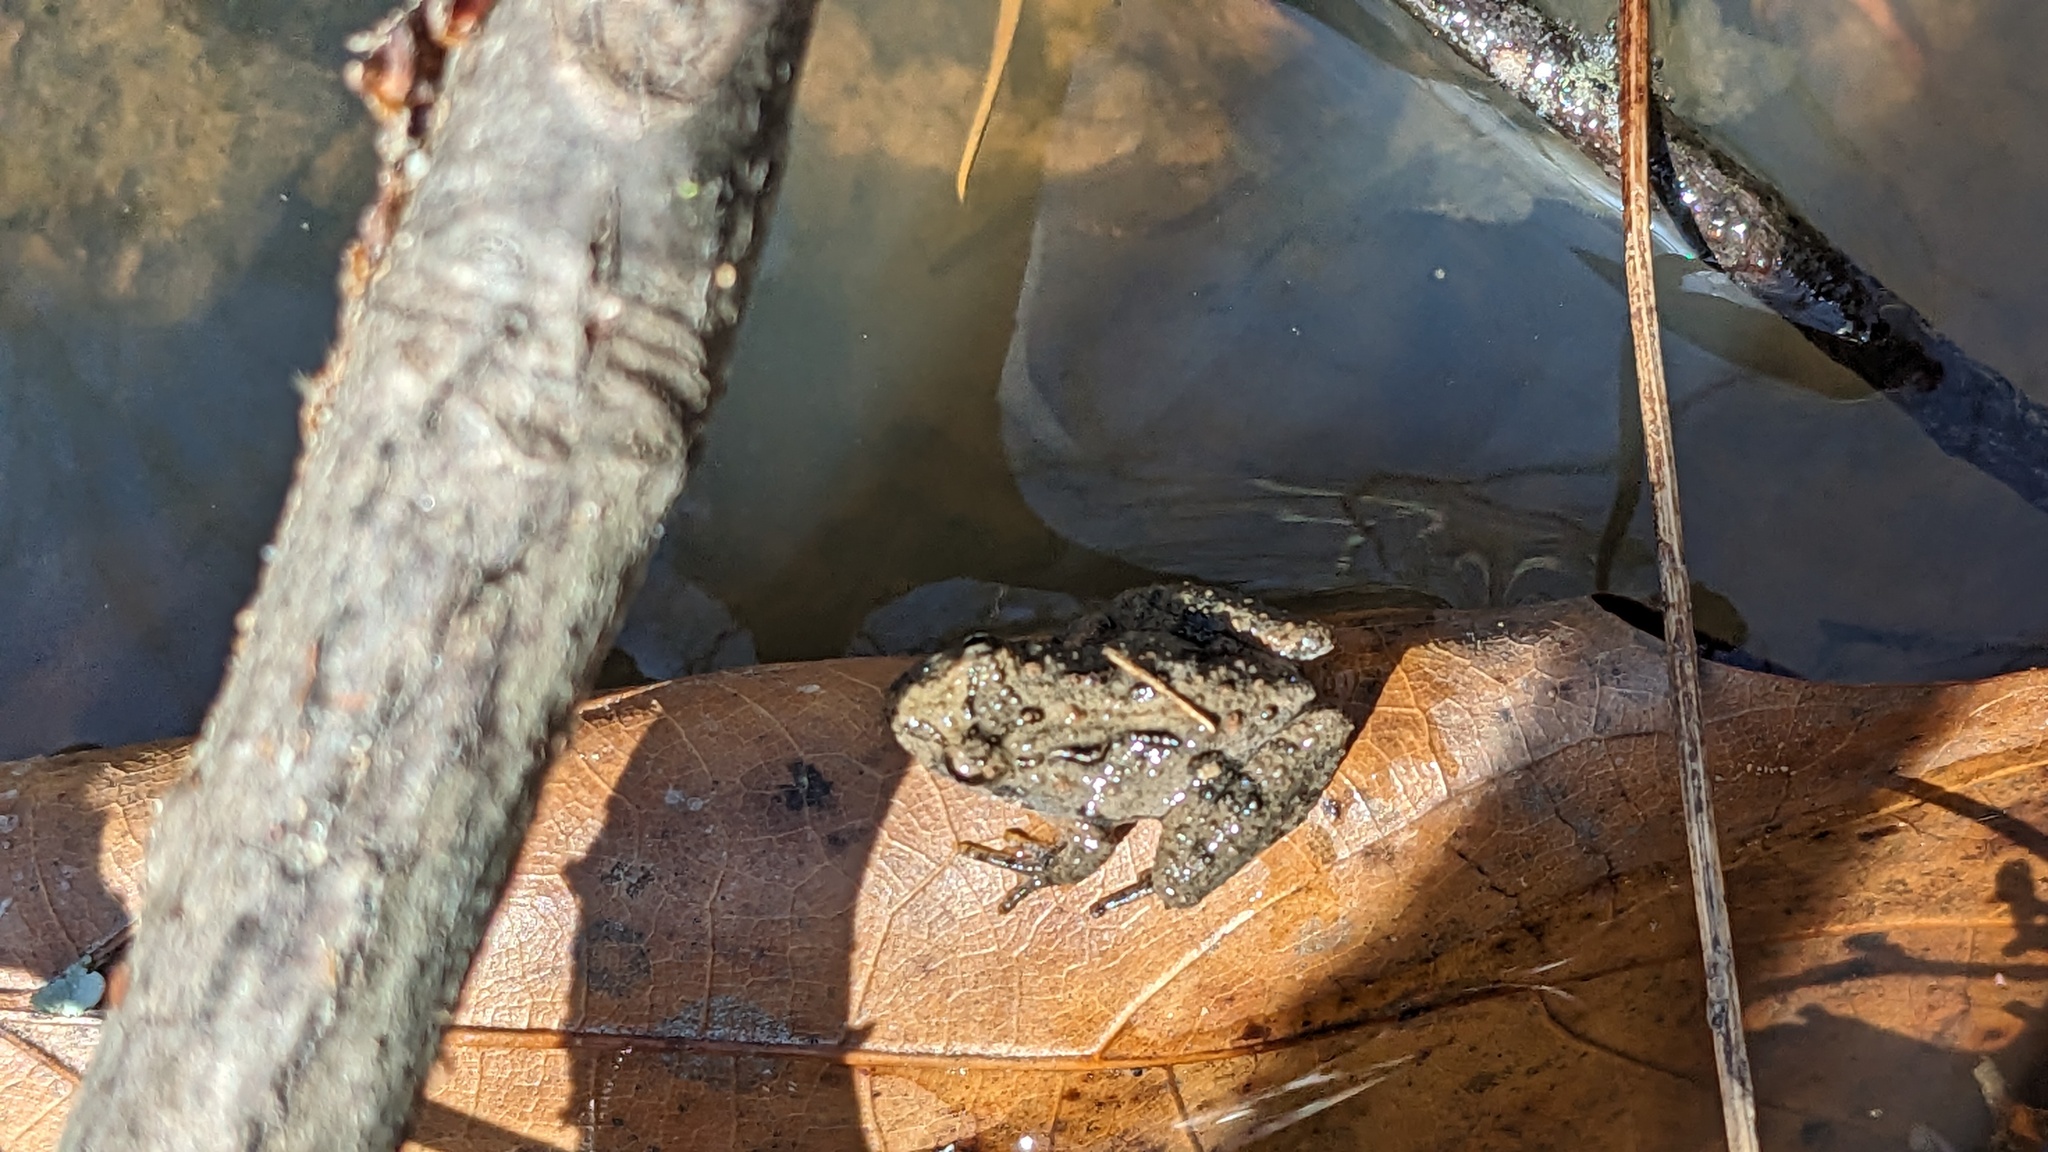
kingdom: Animalia
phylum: Chordata
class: Amphibia
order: Anura
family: Hylidae
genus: Acris
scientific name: Acris crepitans
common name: Northern cricket frog
